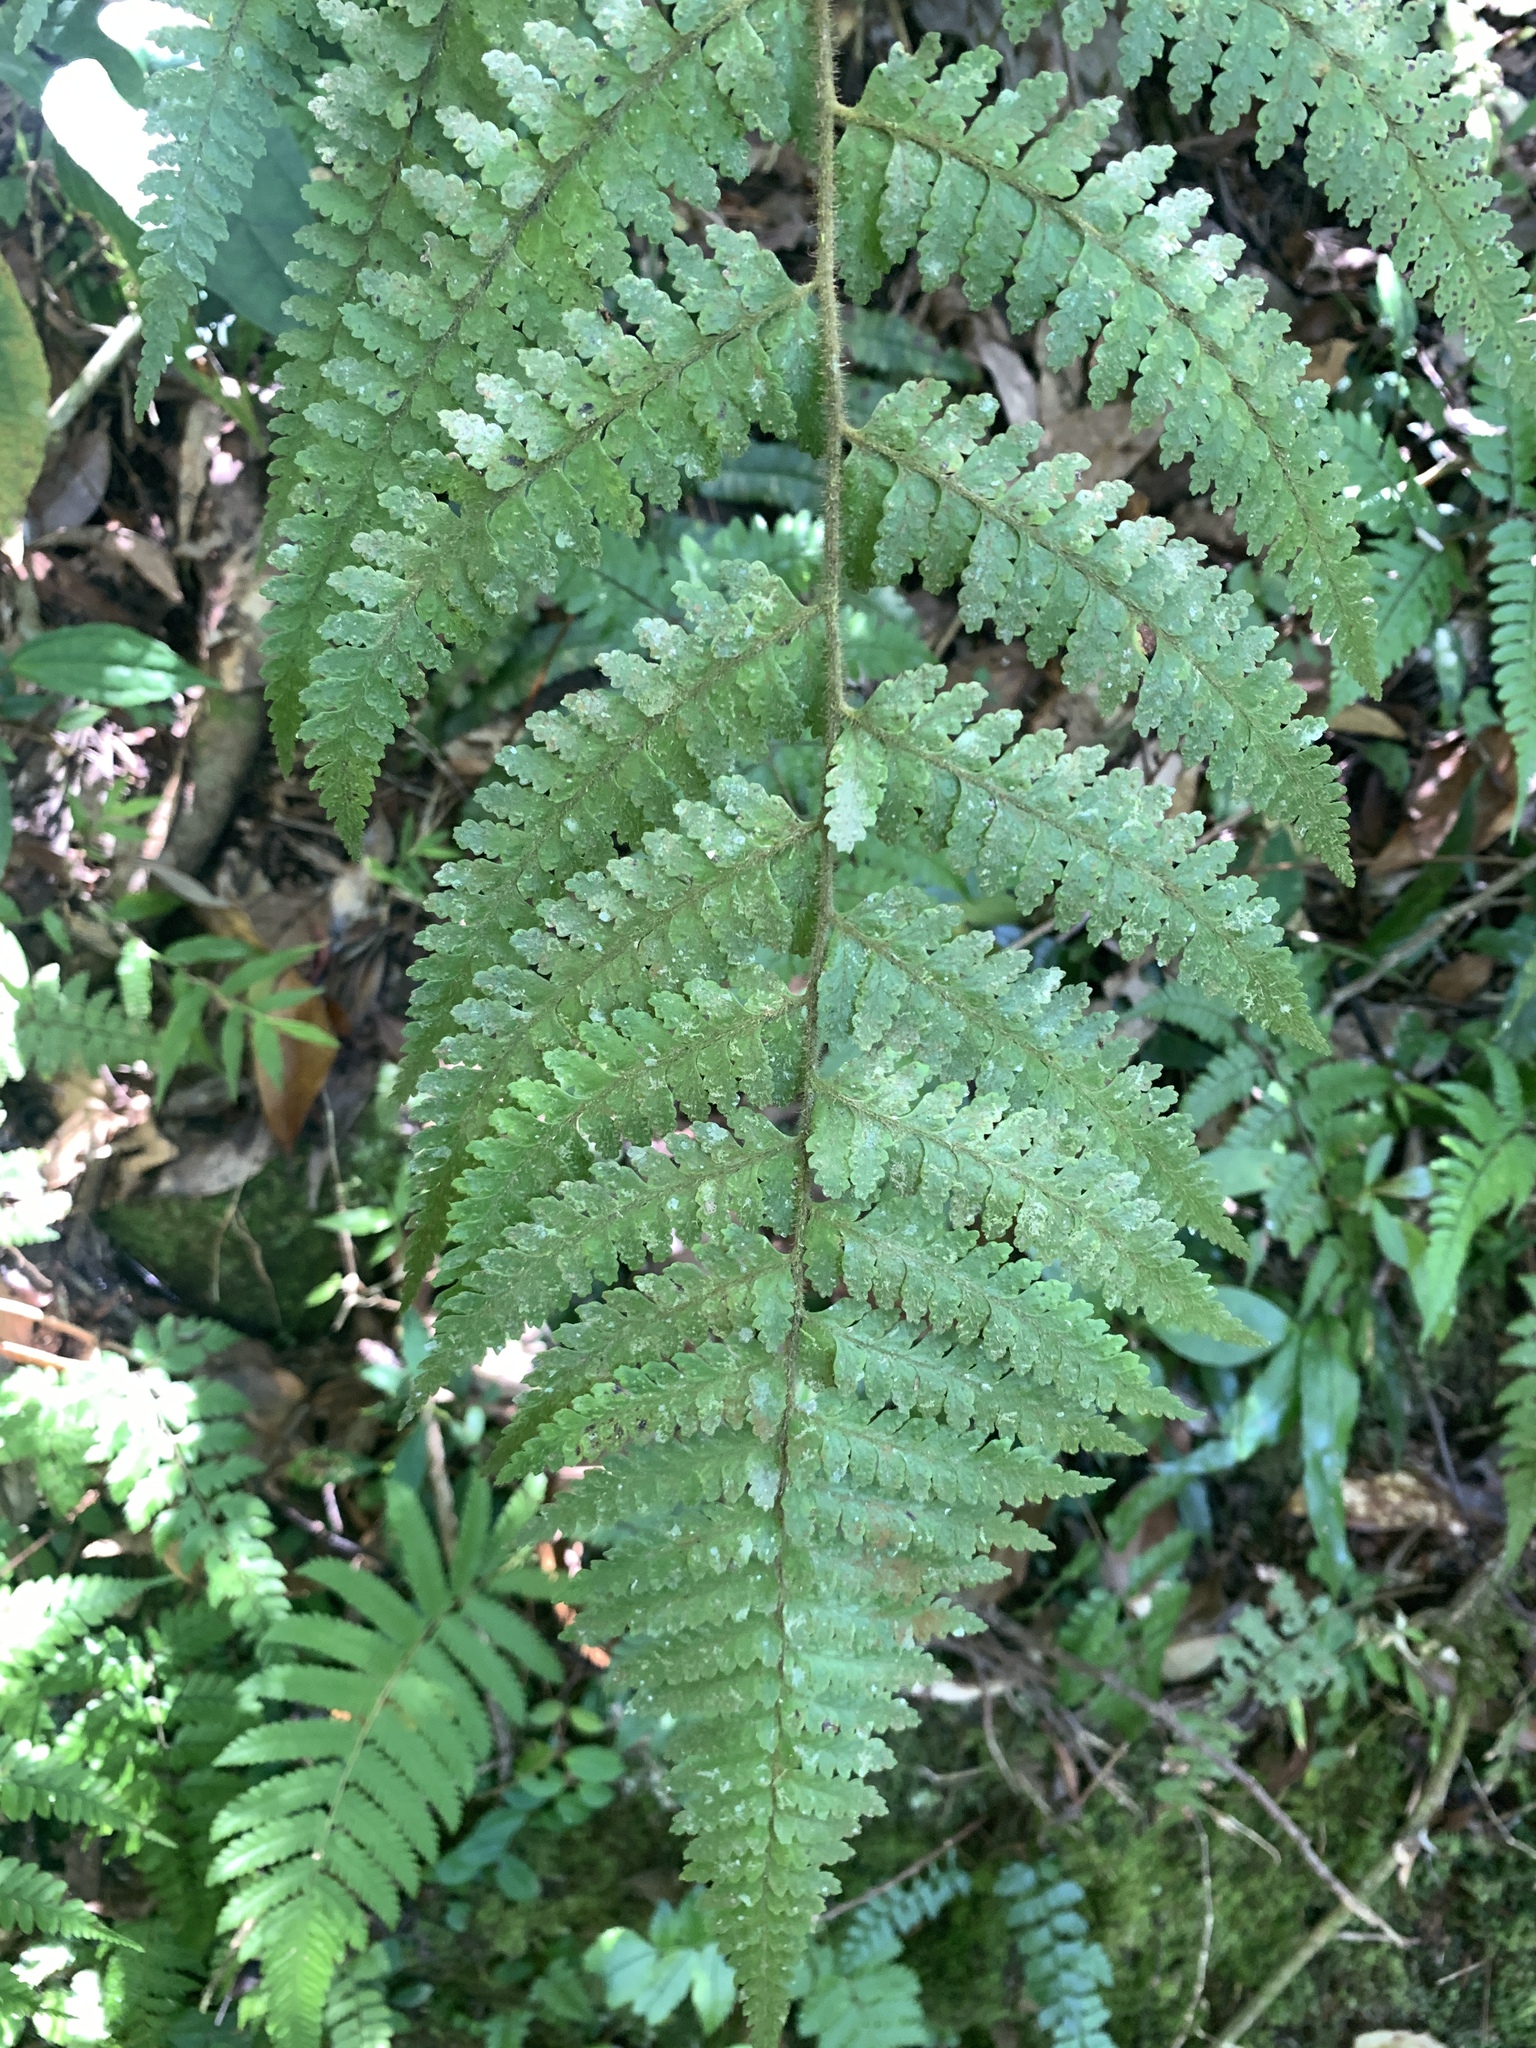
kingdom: Plantae
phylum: Tracheophyta
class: Polypodiopsida
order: Polypodiales
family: Dennstaedtiaceae
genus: Microlepia
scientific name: Microlepia trichocarpa
